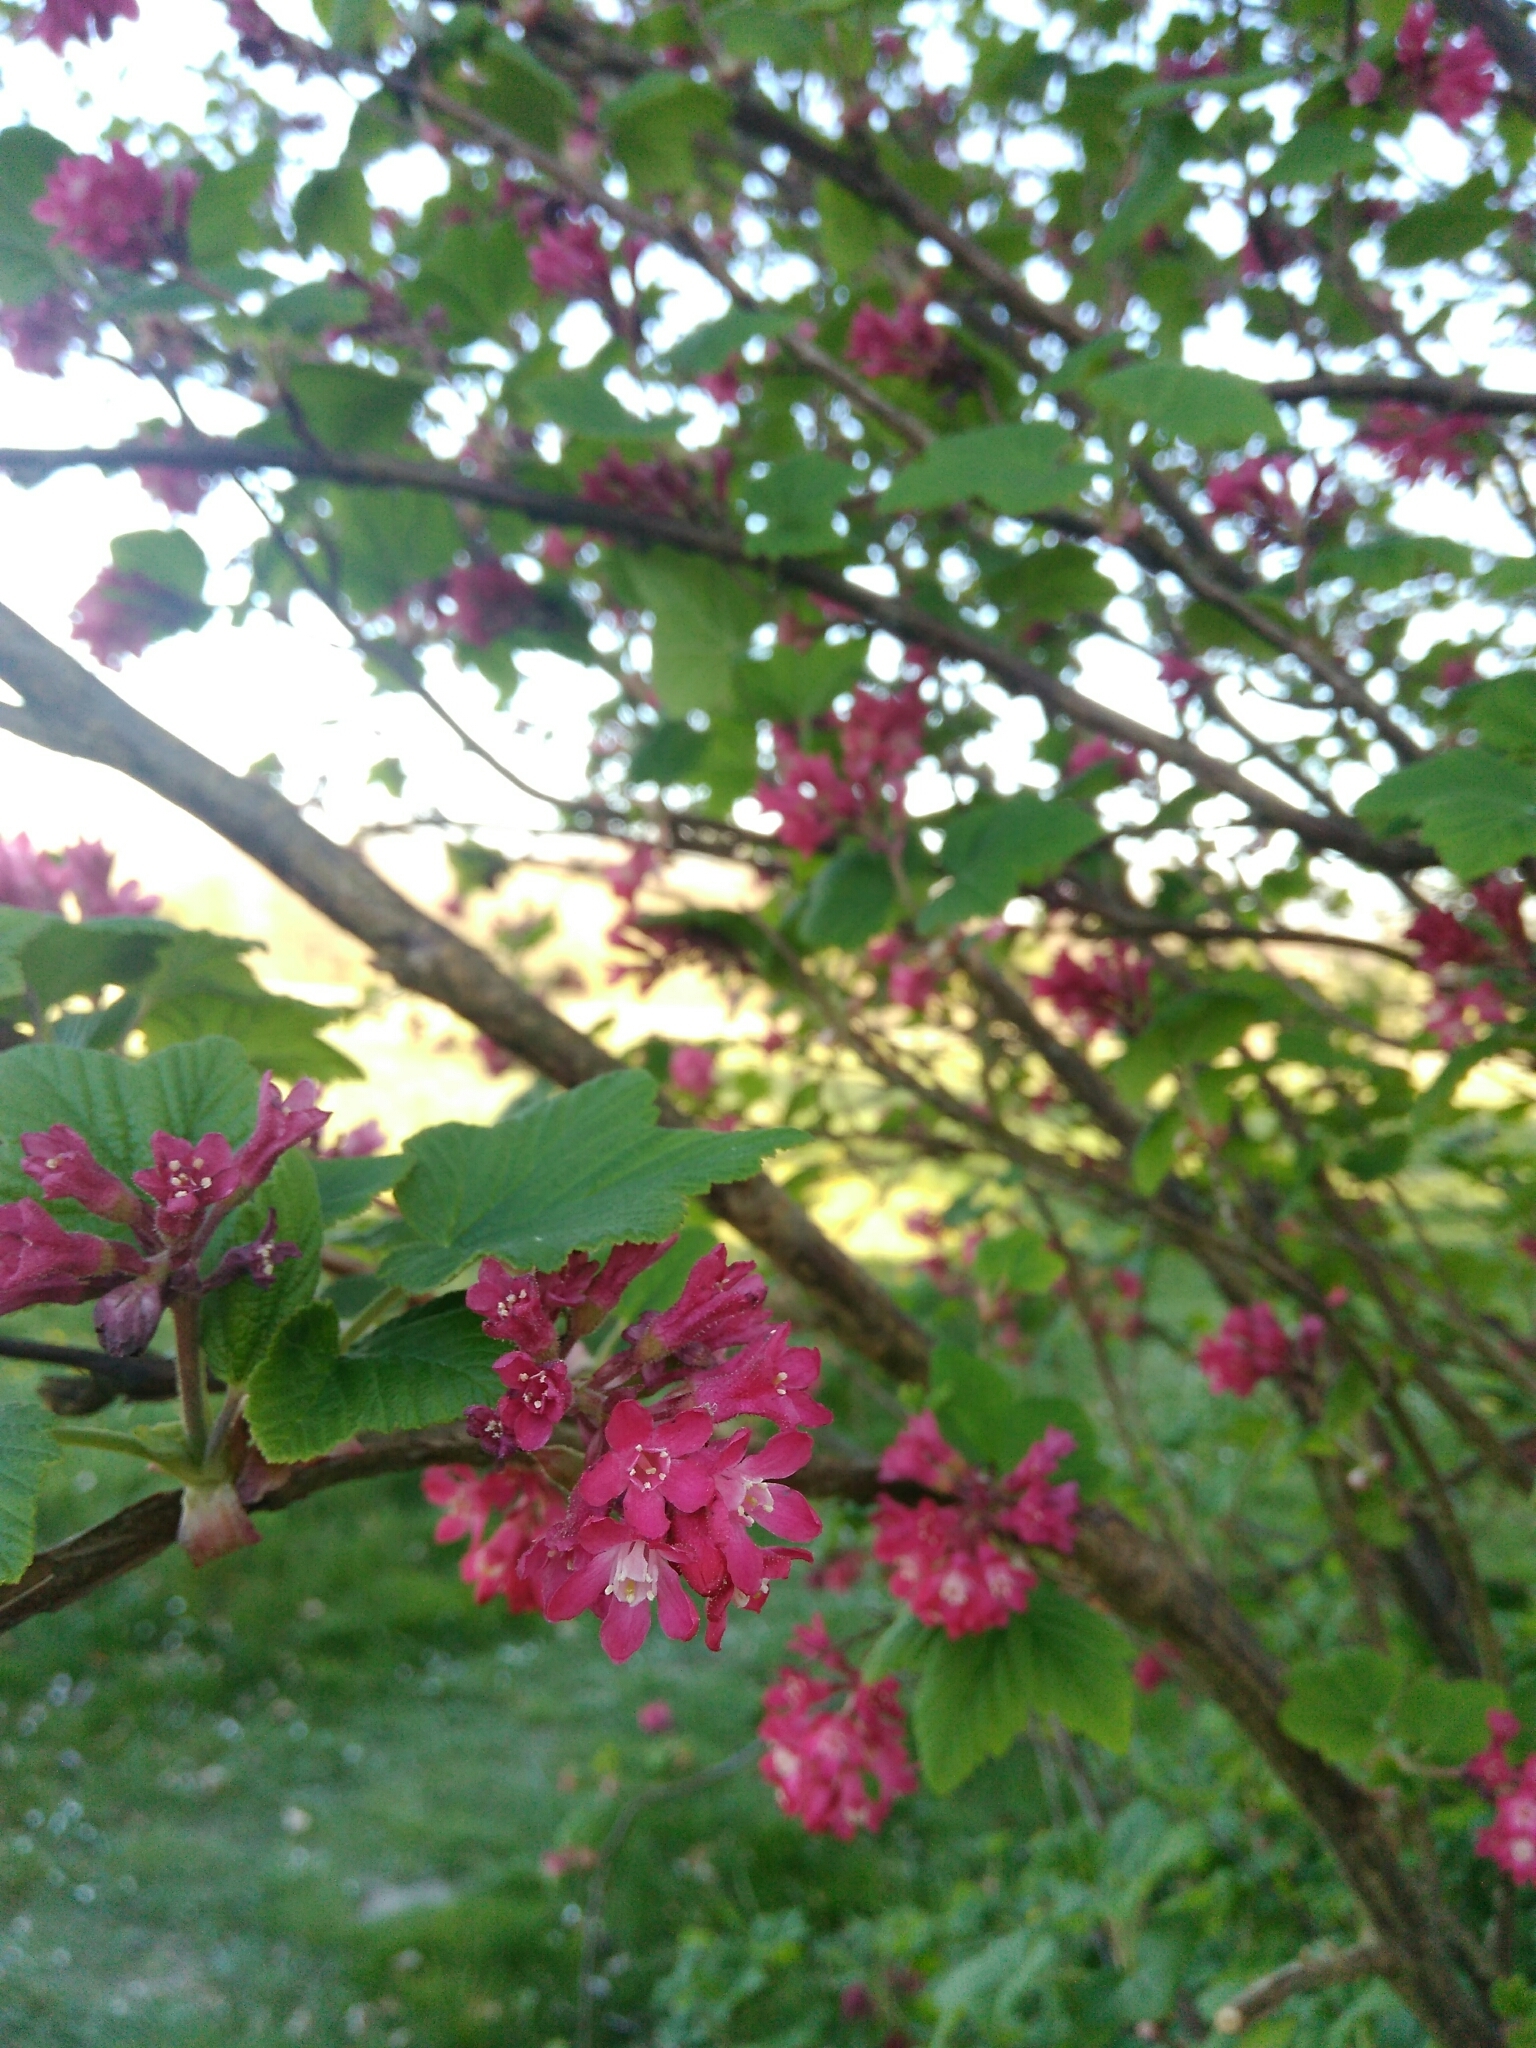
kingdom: Plantae
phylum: Tracheophyta
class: Magnoliopsida
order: Saxifragales
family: Grossulariaceae
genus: Ribes
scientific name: Ribes sanguineum
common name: Flowering currant
